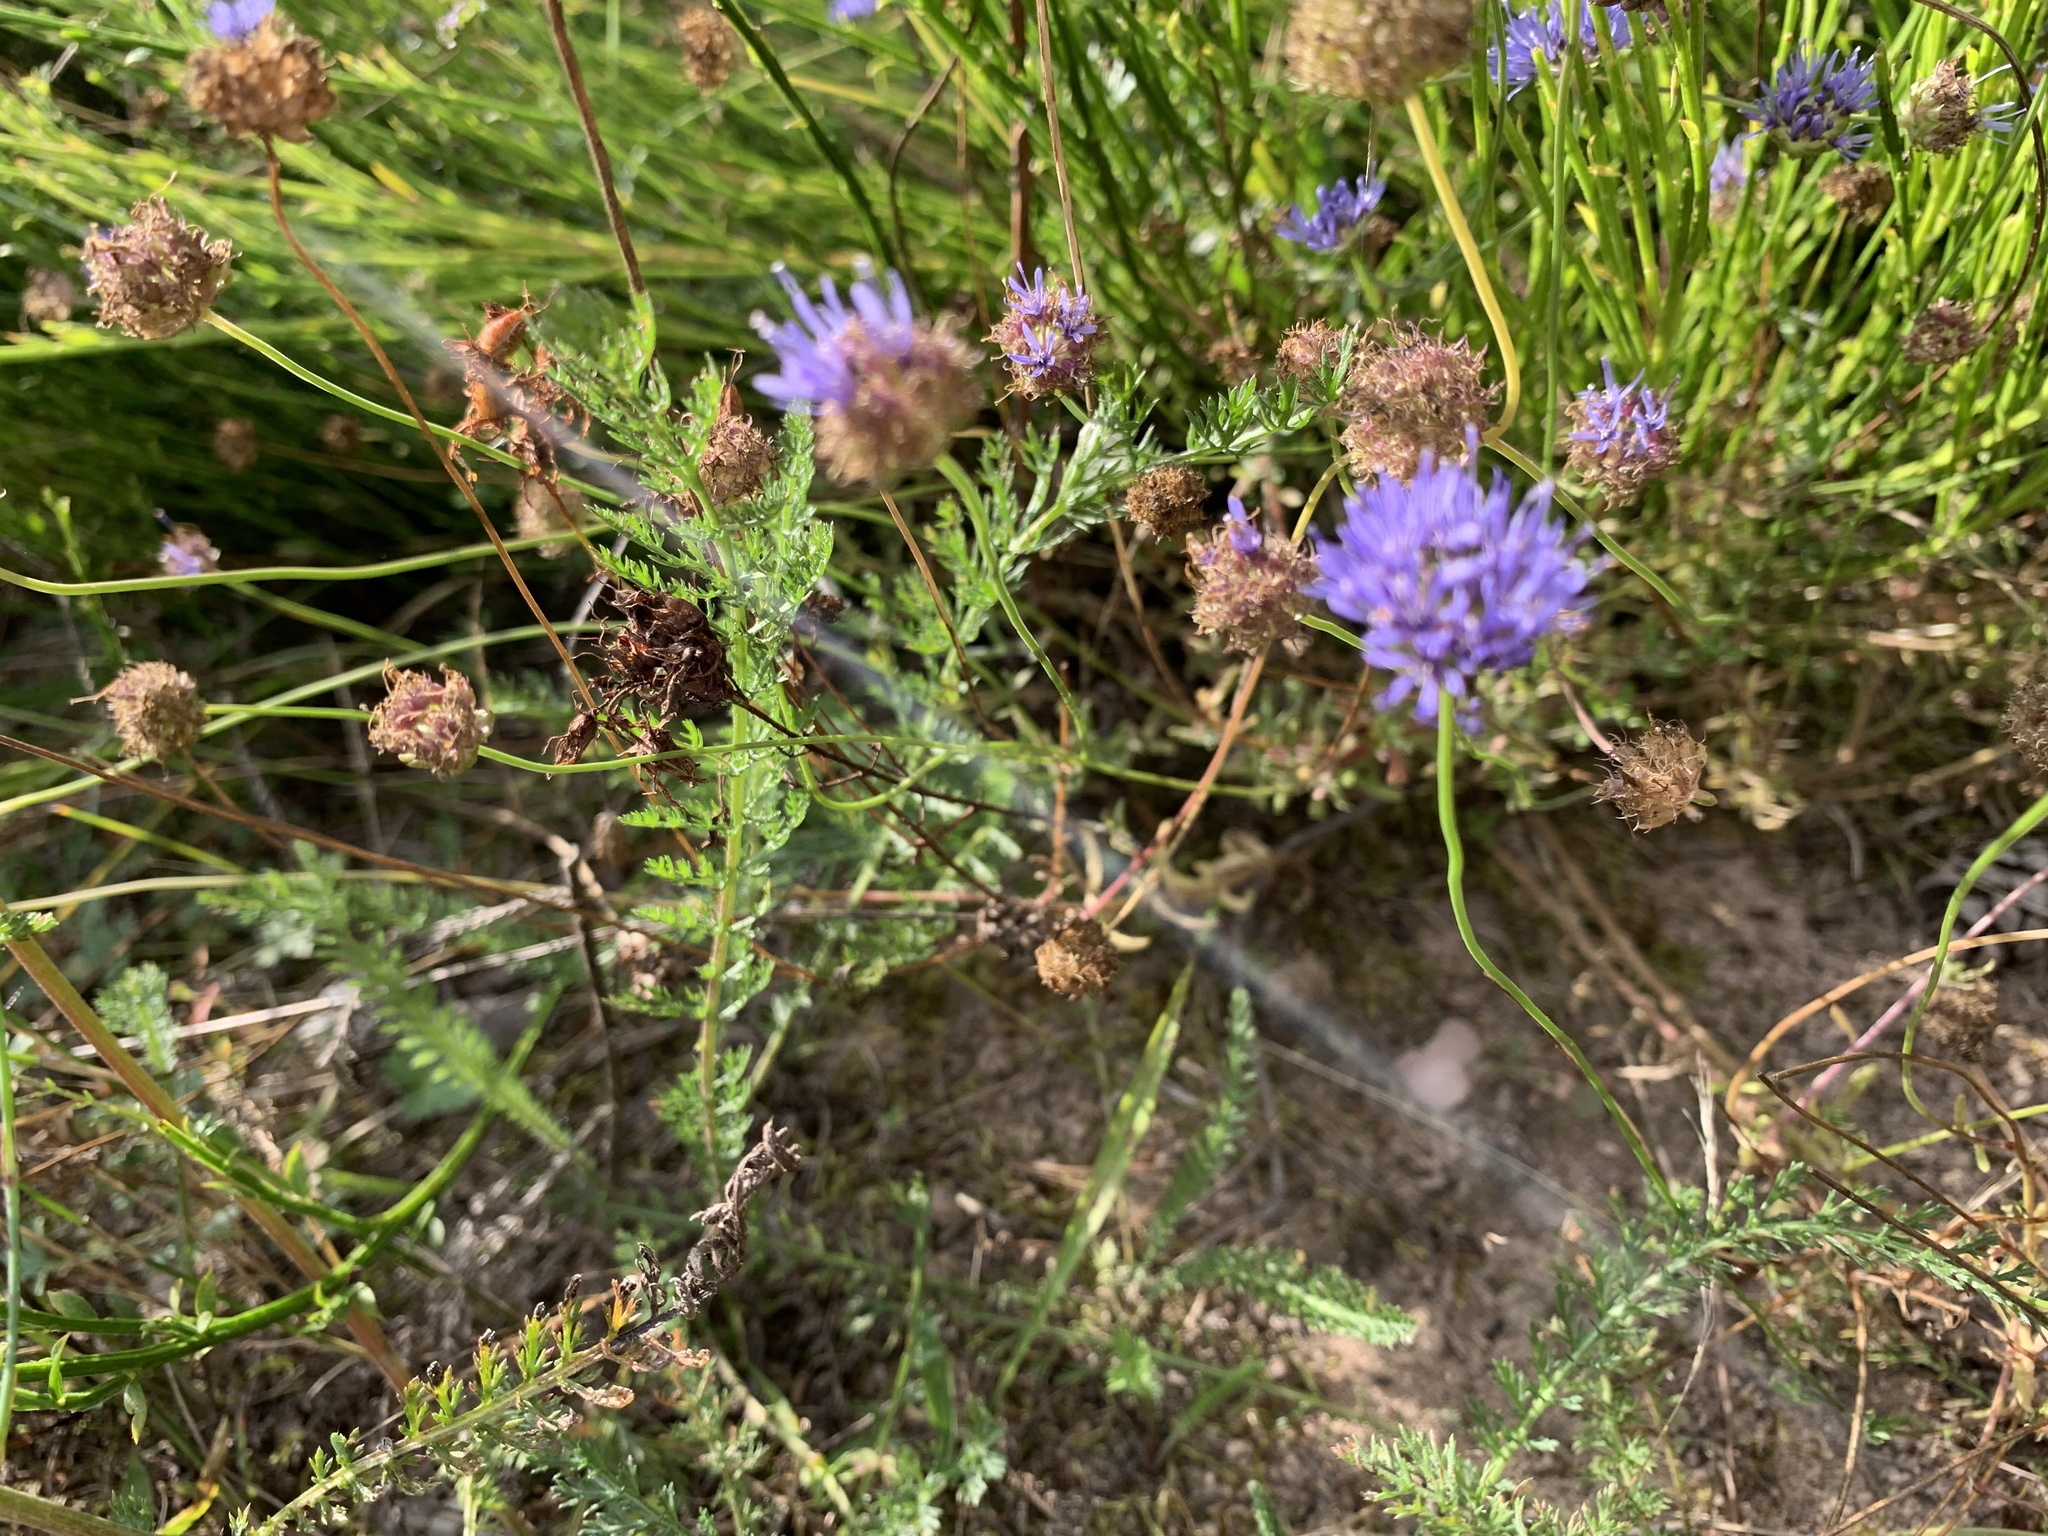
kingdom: Plantae
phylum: Tracheophyta
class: Magnoliopsida
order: Asterales
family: Campanulaceae
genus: Jasione
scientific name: Jasione montana
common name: Sheep's-bit
